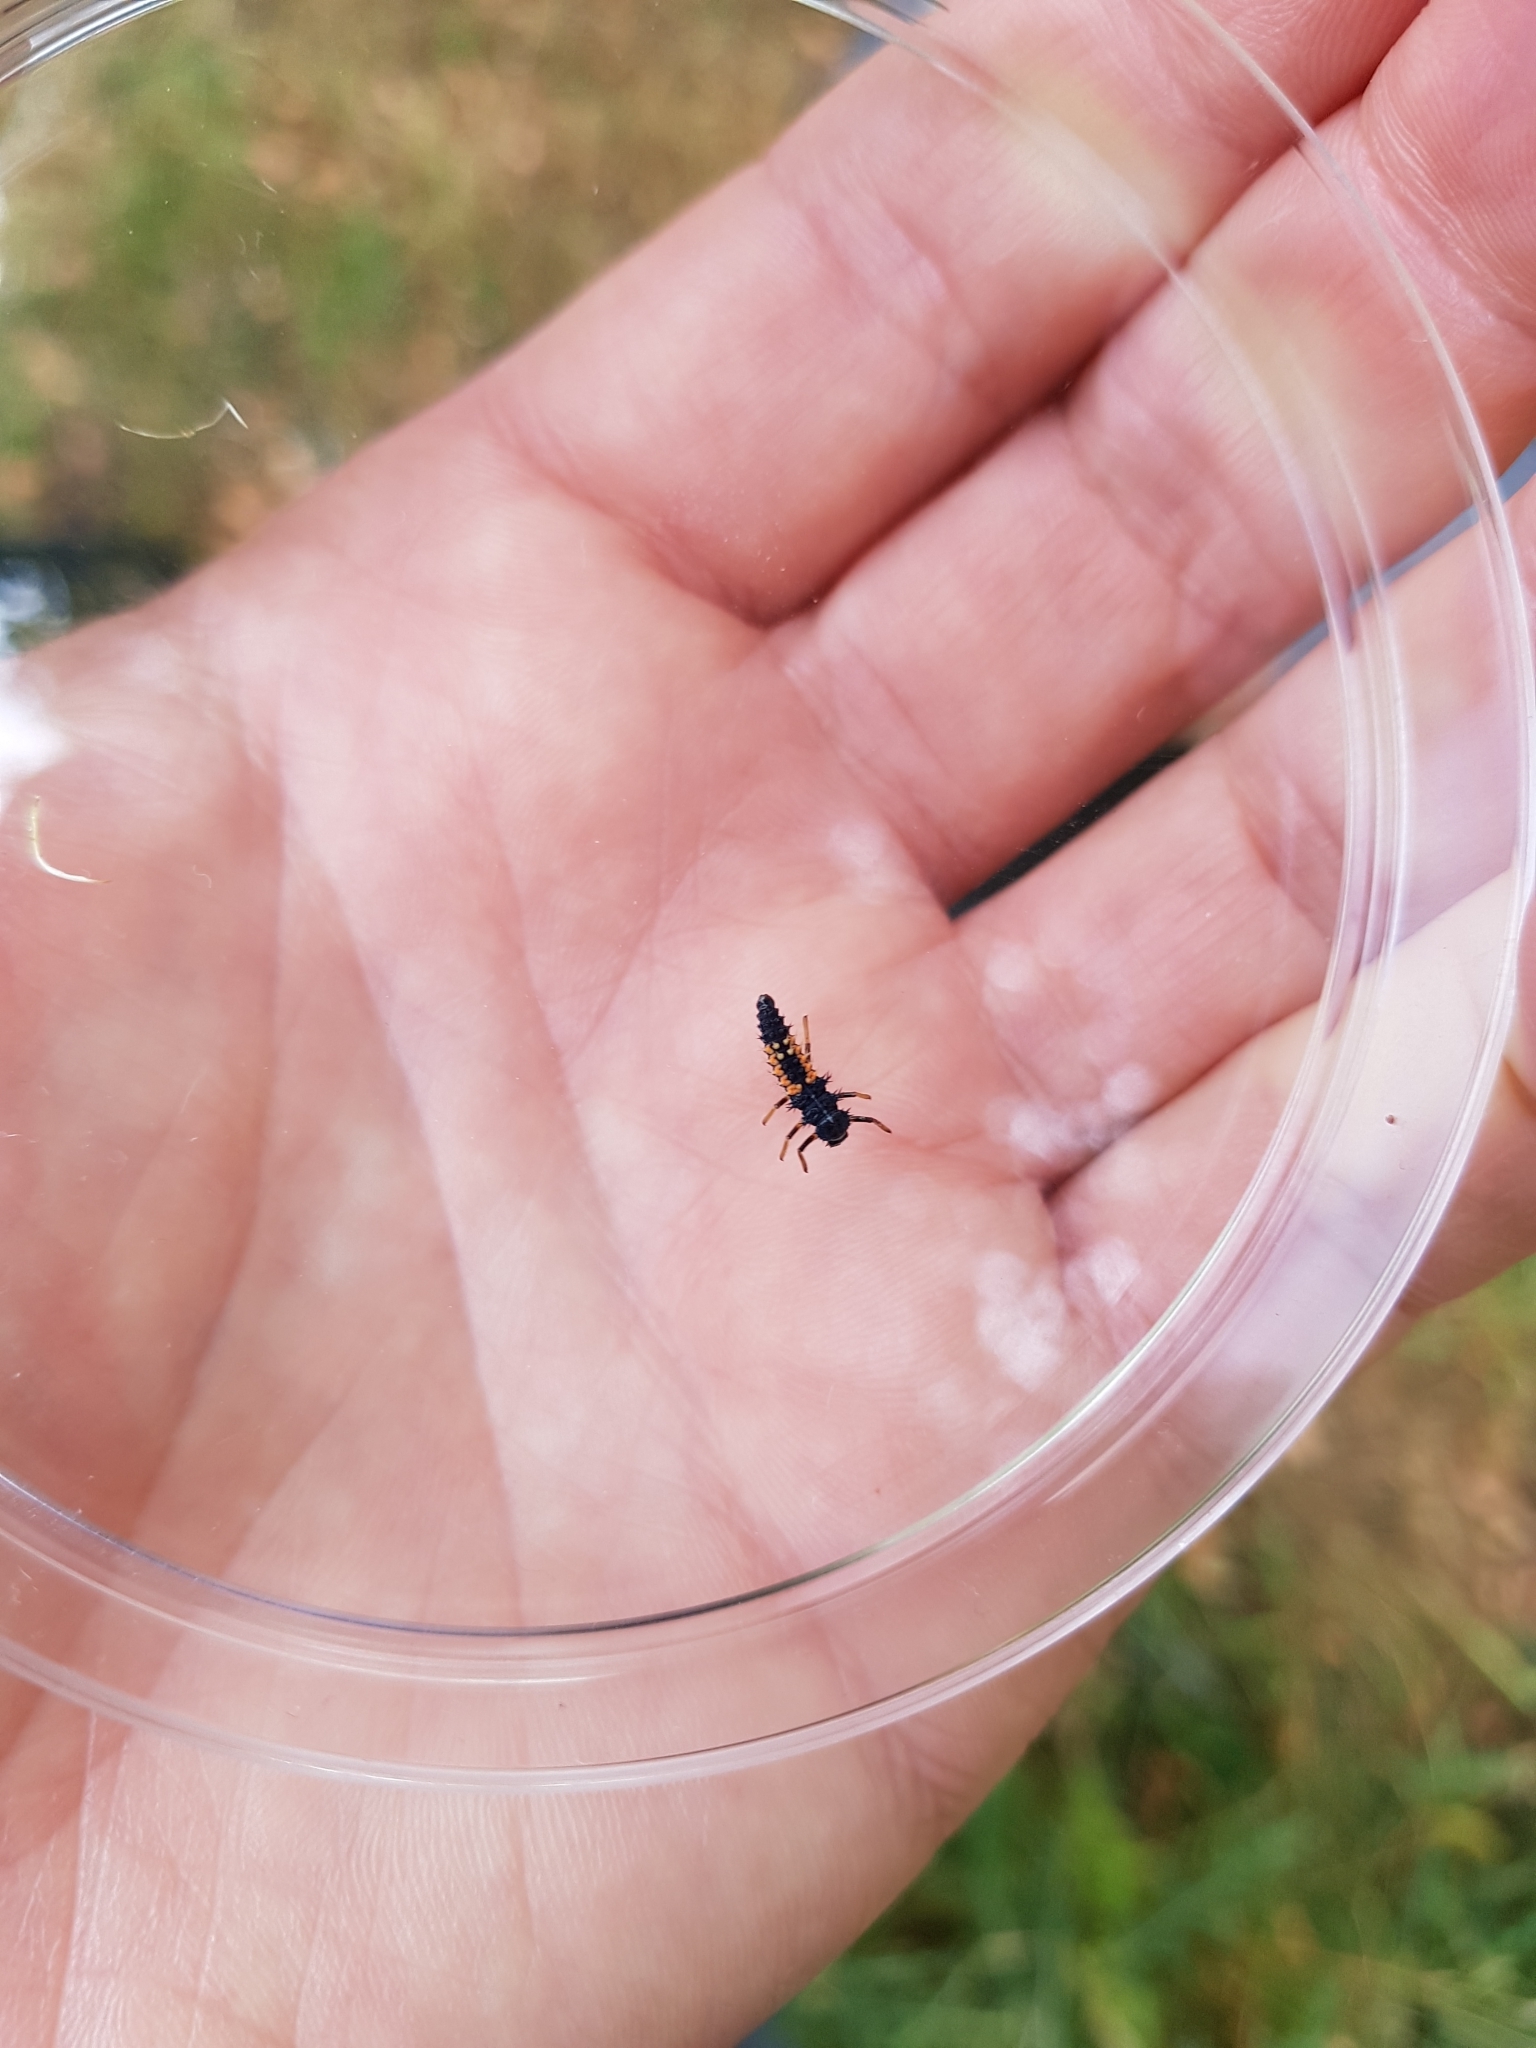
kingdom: Animalia
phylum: Arthropoda
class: Insecta
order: Coleoptera
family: Coccinellidae
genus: Harmonia
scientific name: Harmonia axyridis
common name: Harlequin ladybird
